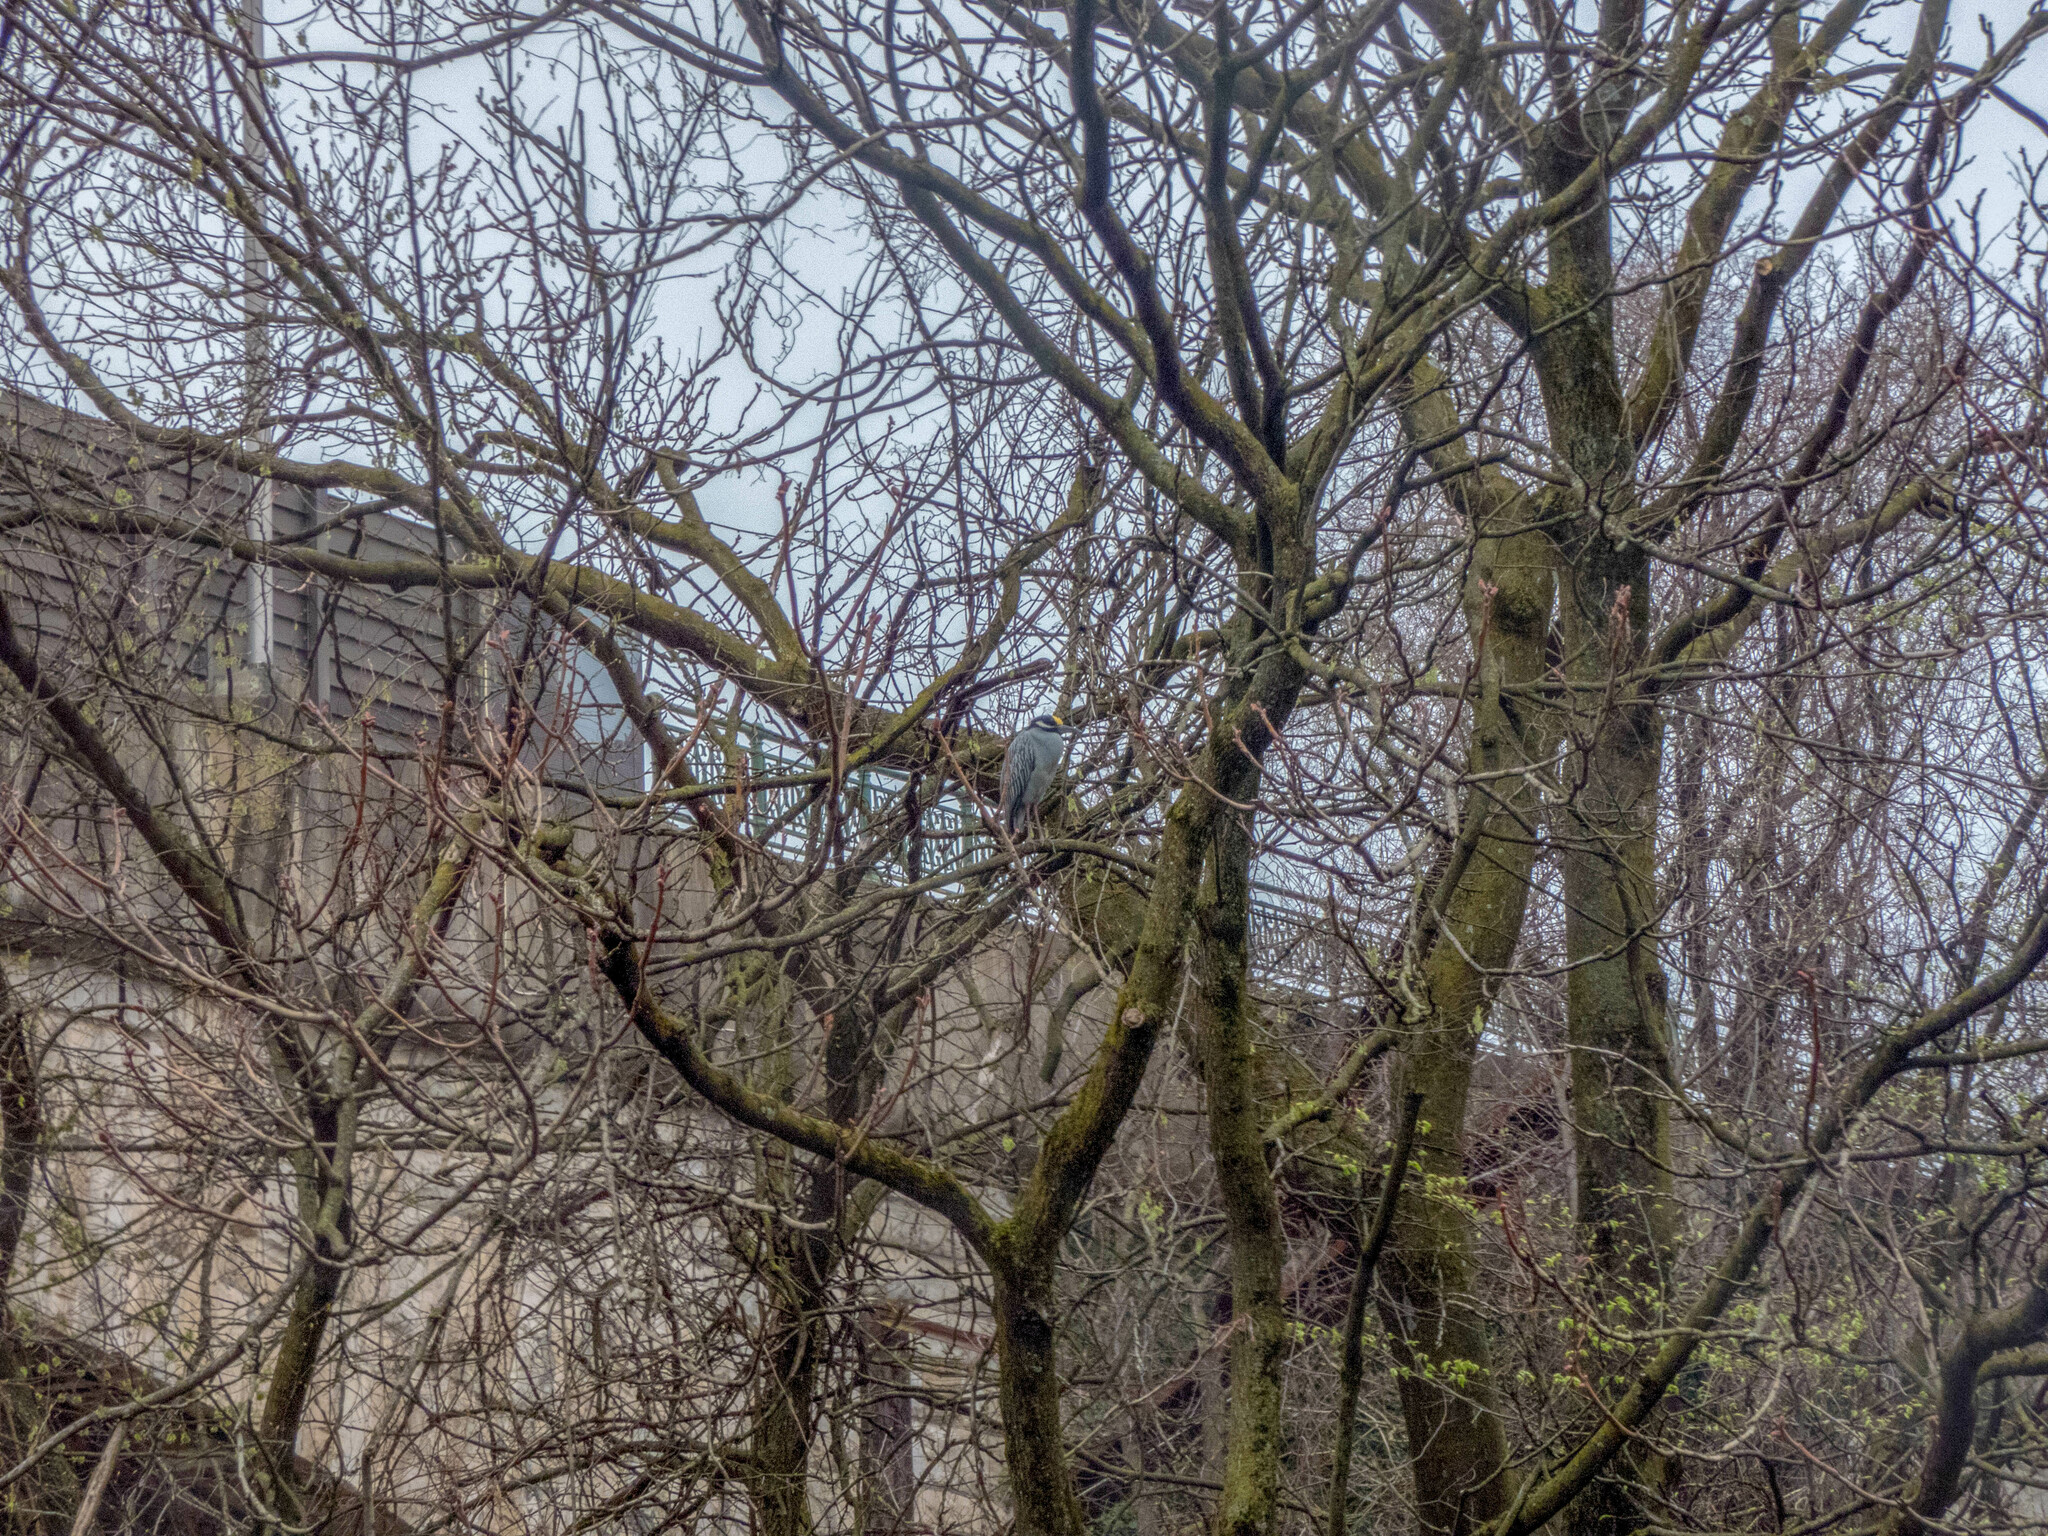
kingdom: Animalia
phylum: Chordata
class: Aves
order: Pelecaniformes
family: Ardeidae
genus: Nyctanassa
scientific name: Nyctanassa violacea
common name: Yellow-crowned night heron
